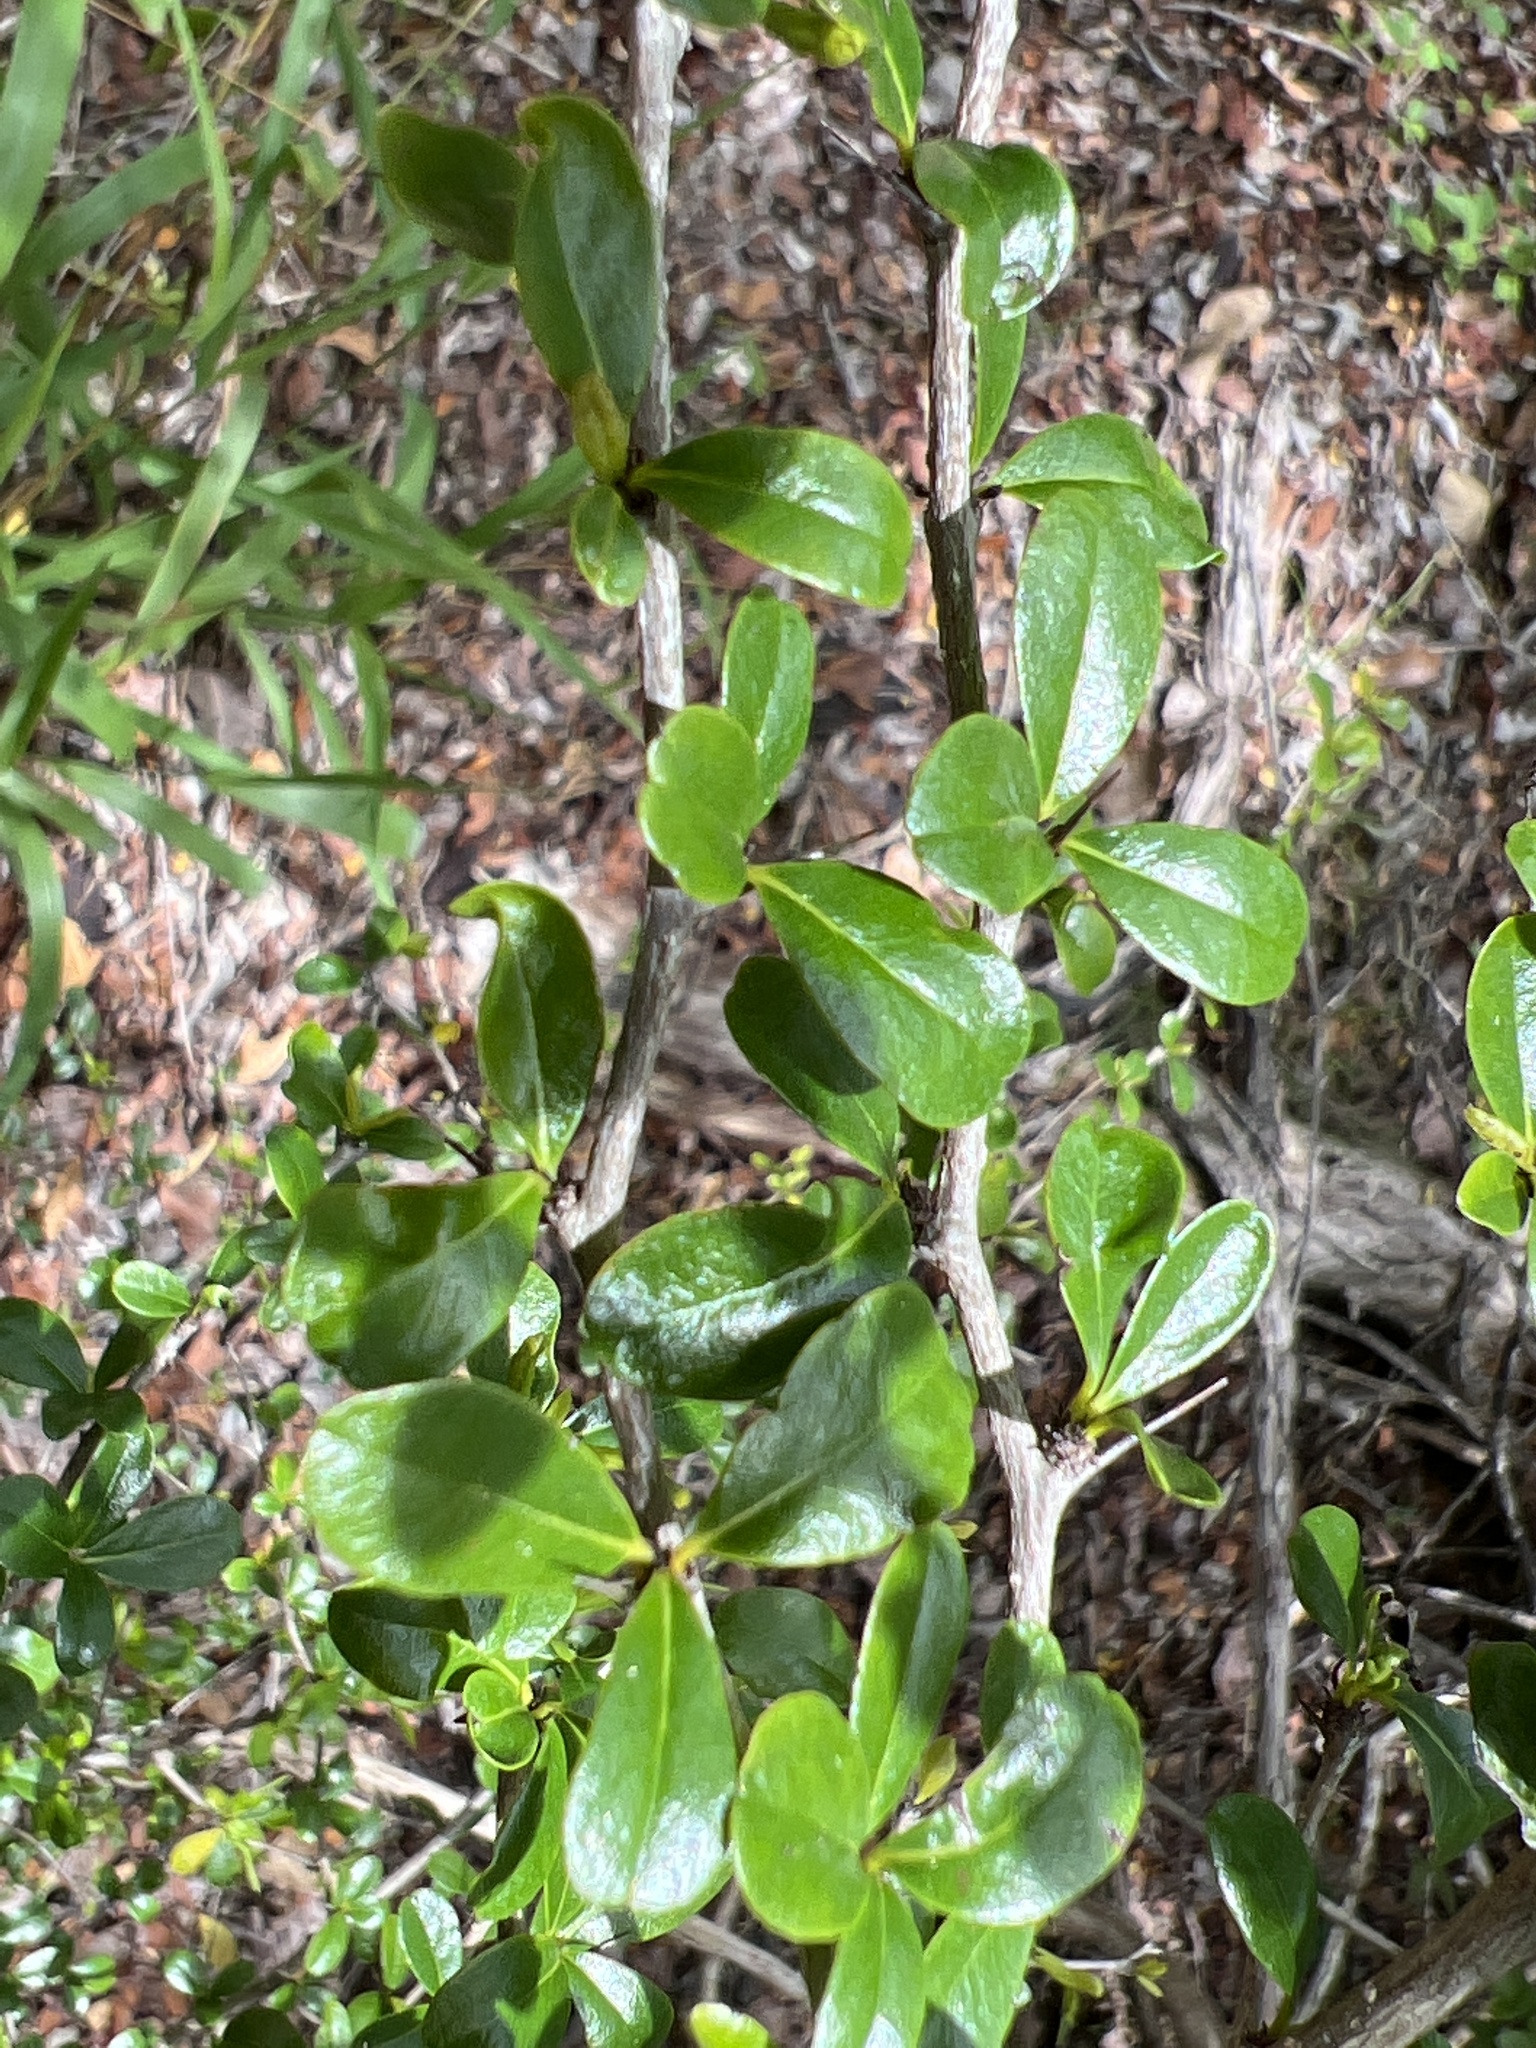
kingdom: Plantae
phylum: Tracheophyta
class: Magnoliopsida
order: Boraginales
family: Ehretiaceae
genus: Rochefortia
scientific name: Rochefortia acanthophora
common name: Greenheart ebony
